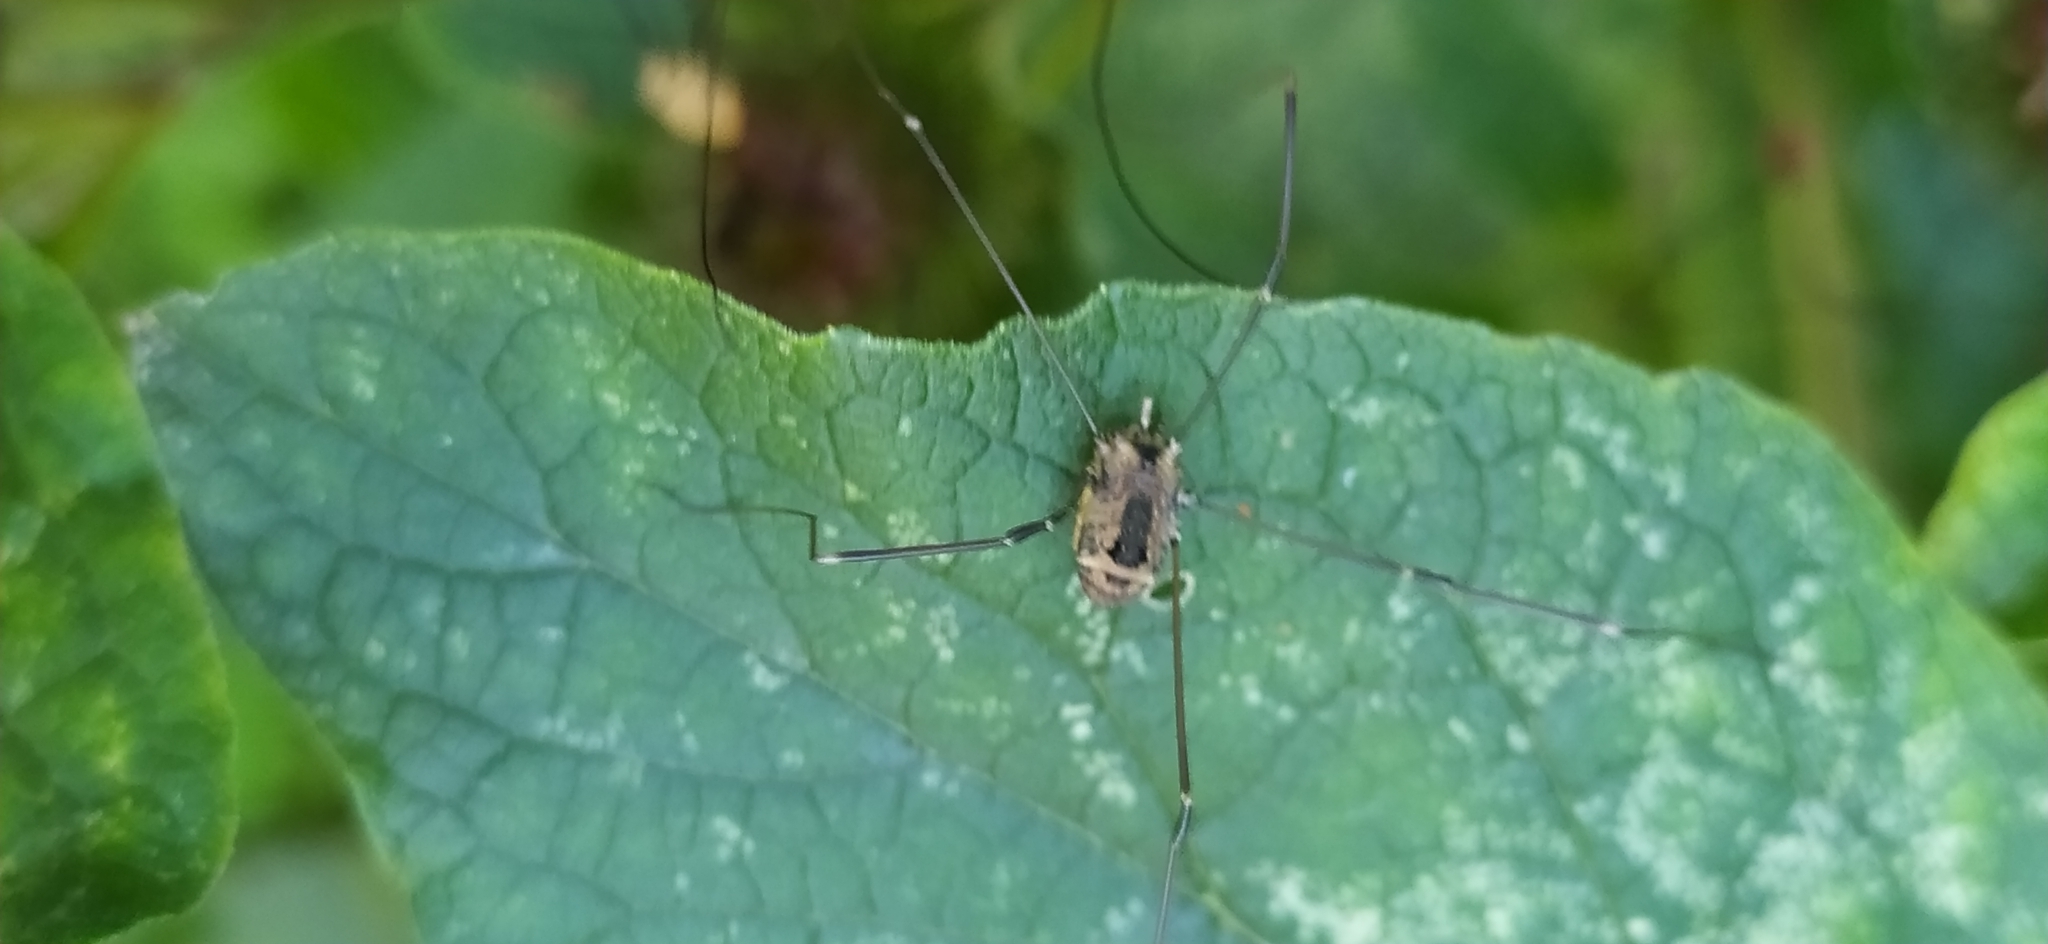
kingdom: Animalia
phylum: Arthropoda
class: Arachnida
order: Opiliones
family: Sclerosomatidae
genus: Leiobunum
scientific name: Leiobunum rotundum
